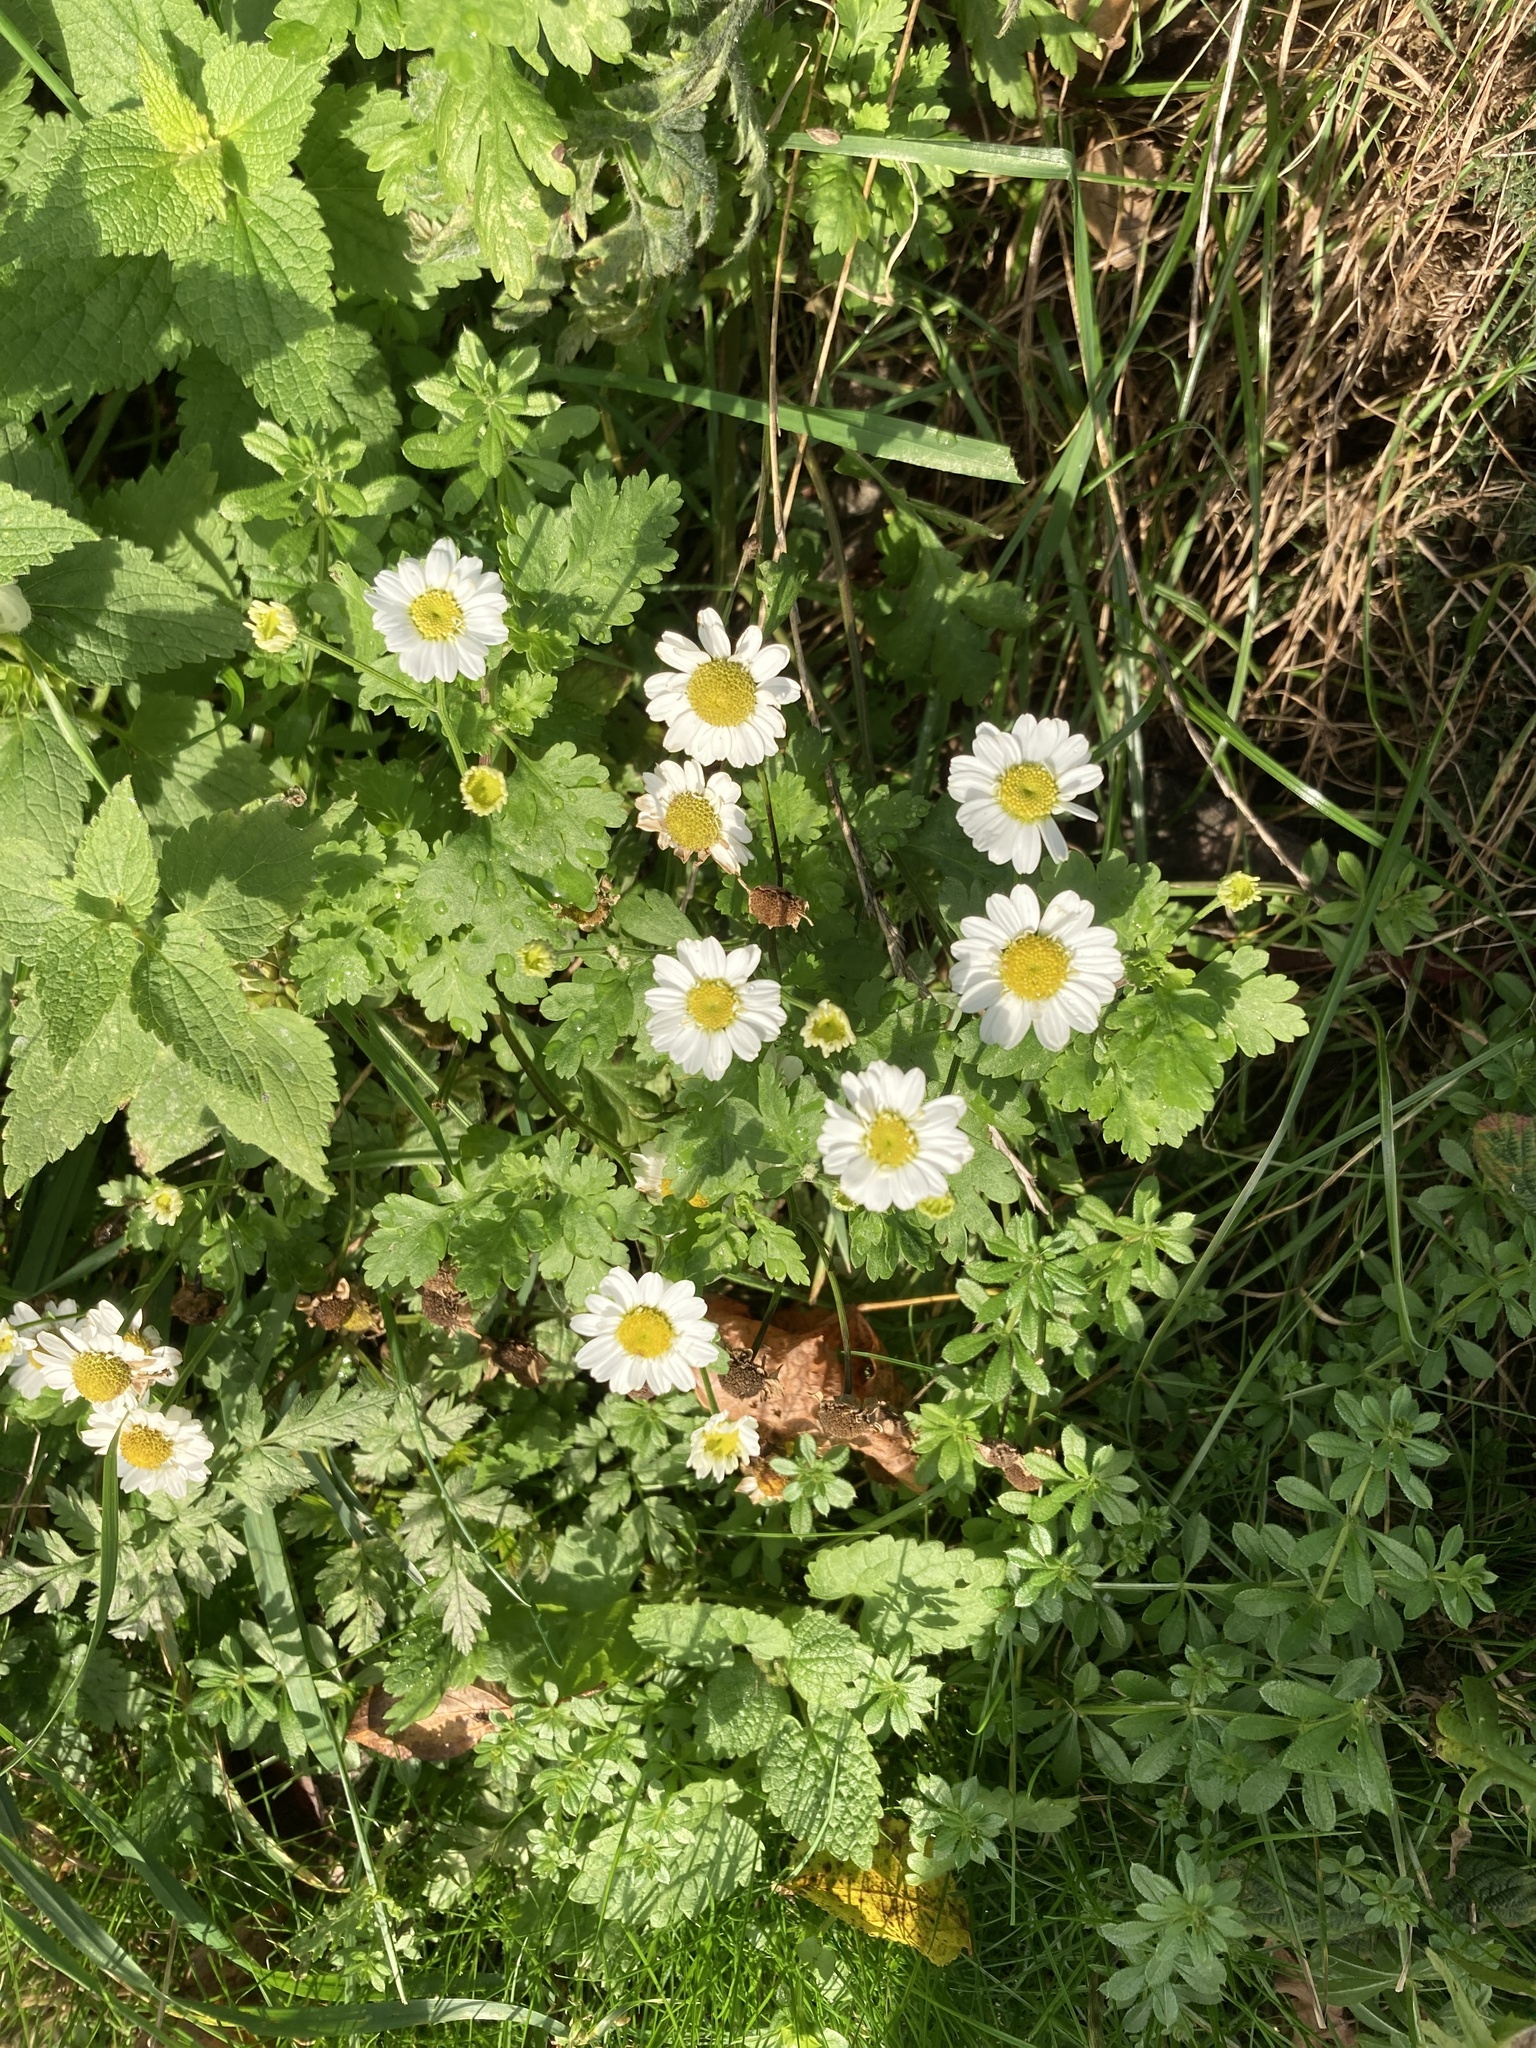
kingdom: Plantae
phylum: Tracheophyta
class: Magnoliopsida
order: Asterales
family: Asteraceae
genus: Tanacetum
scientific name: Tanacetum parthenium
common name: Feverfew
